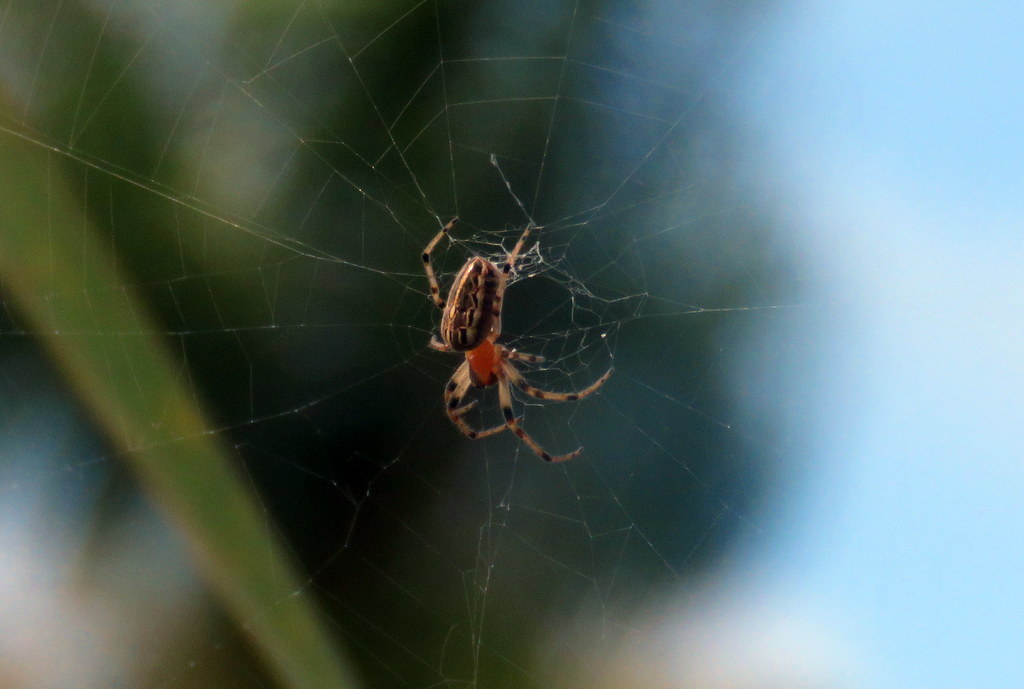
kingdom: Animalia
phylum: Arthropoda
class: Arachnida
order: Araneae
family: Araneidae
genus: Alpaida
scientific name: Alpaida veniliae
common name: Orb weavers
